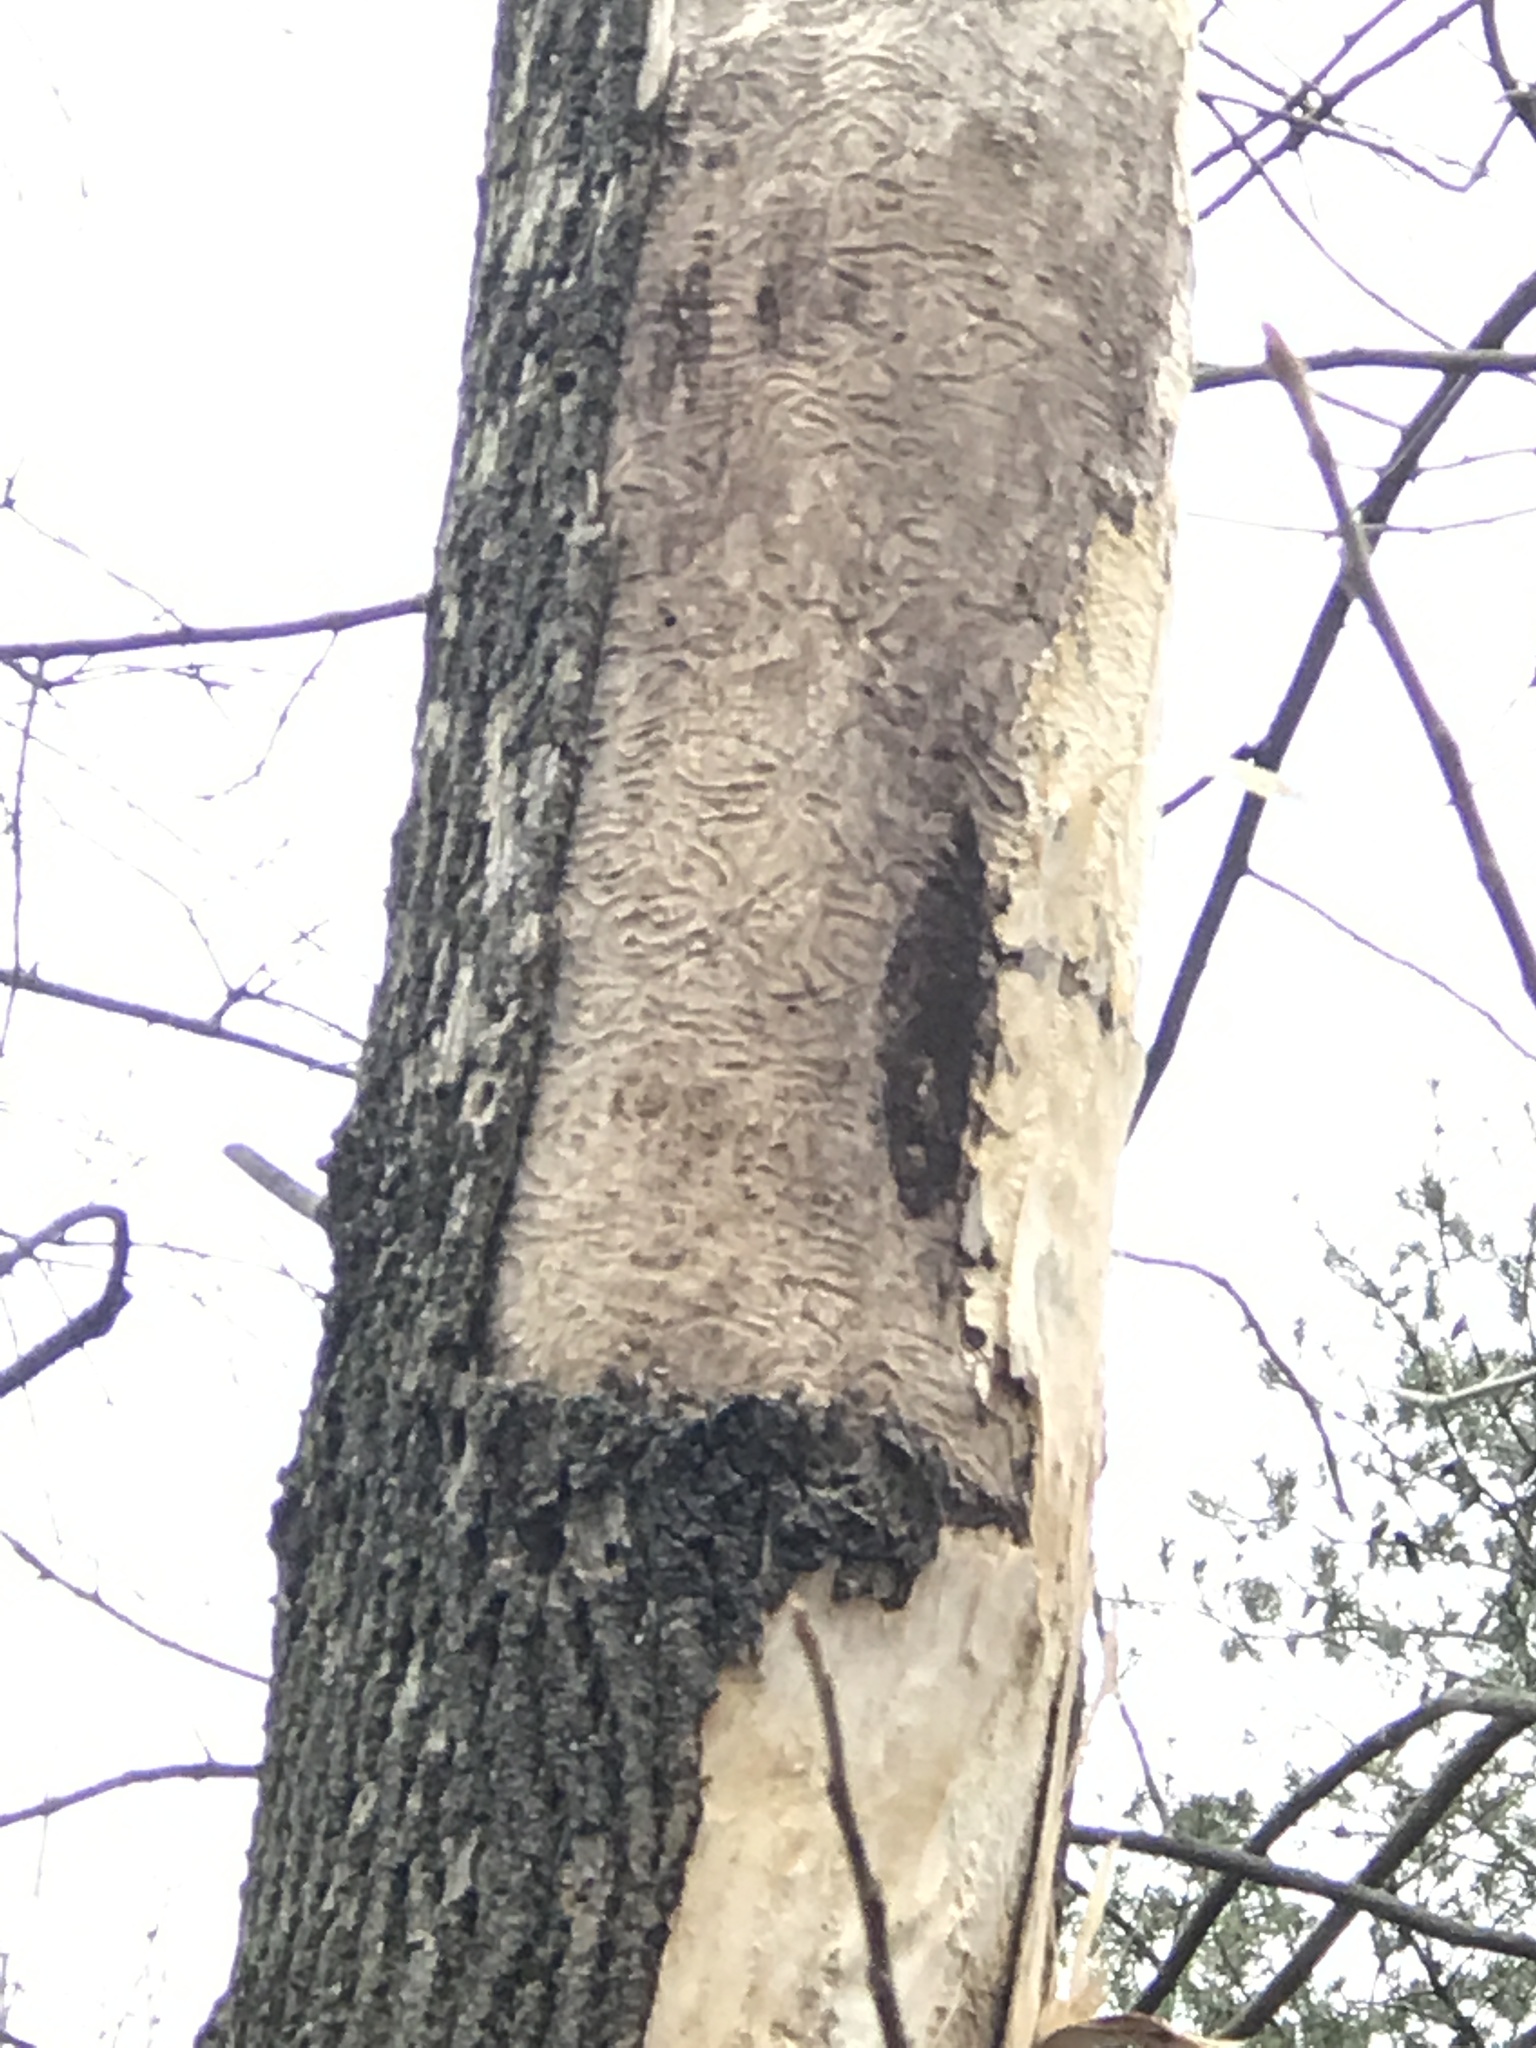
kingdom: Animalia
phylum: Arthropoda
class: Insecta
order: Coleoptera
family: Buprestidae
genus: Agrilus
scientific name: Agrilus planipennis
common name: Emerald ash borer
